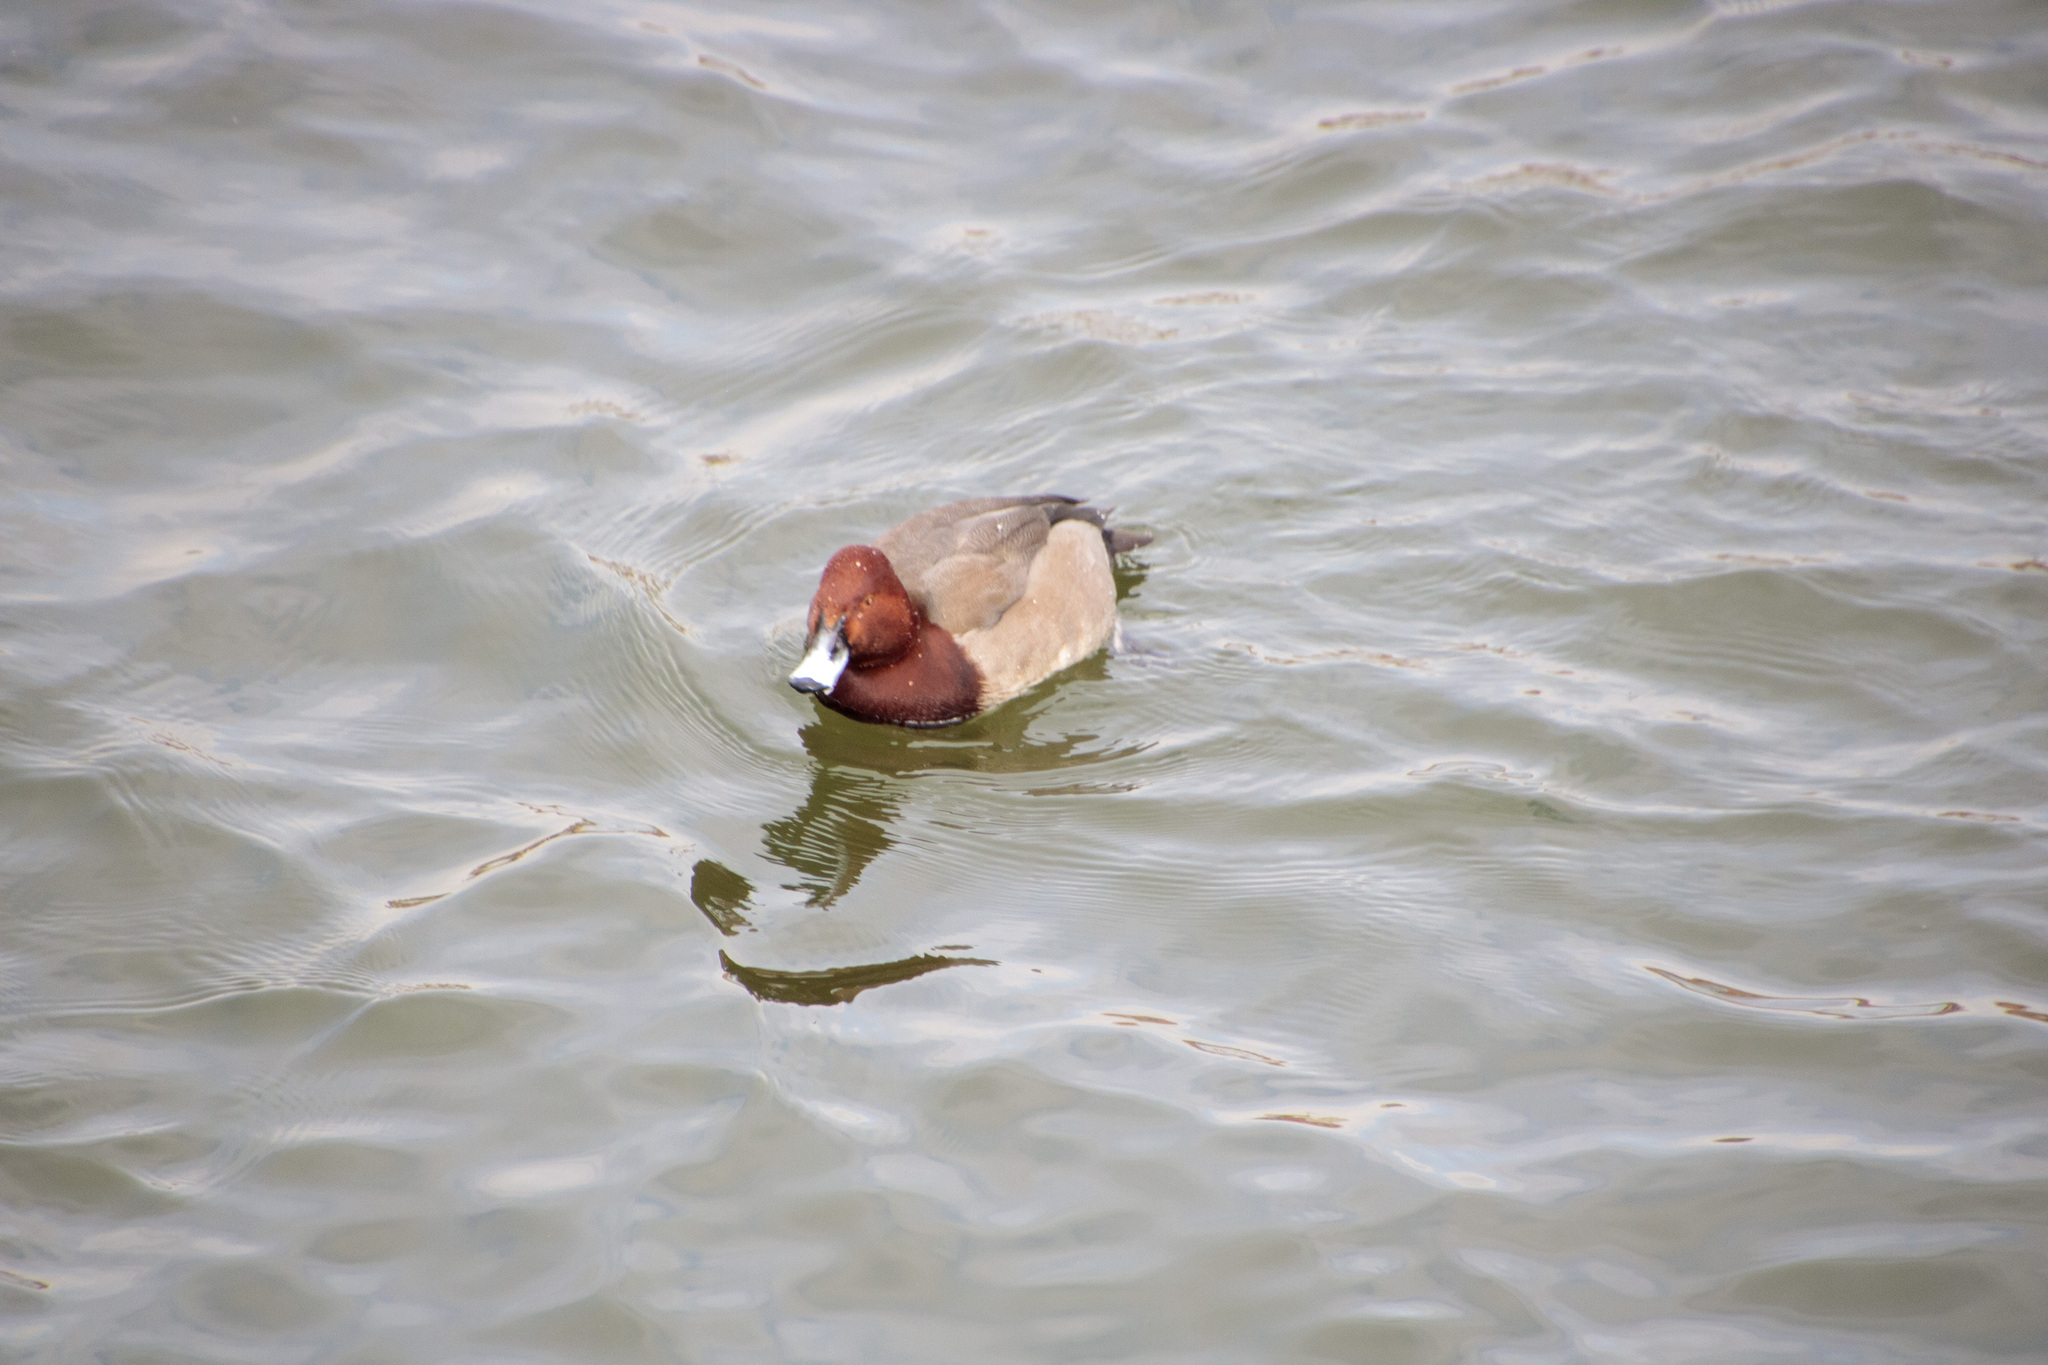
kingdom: Animalia
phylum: Chordata
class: Aves
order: Anseriformes
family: Anatidae
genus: Aythya
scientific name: Aythya
